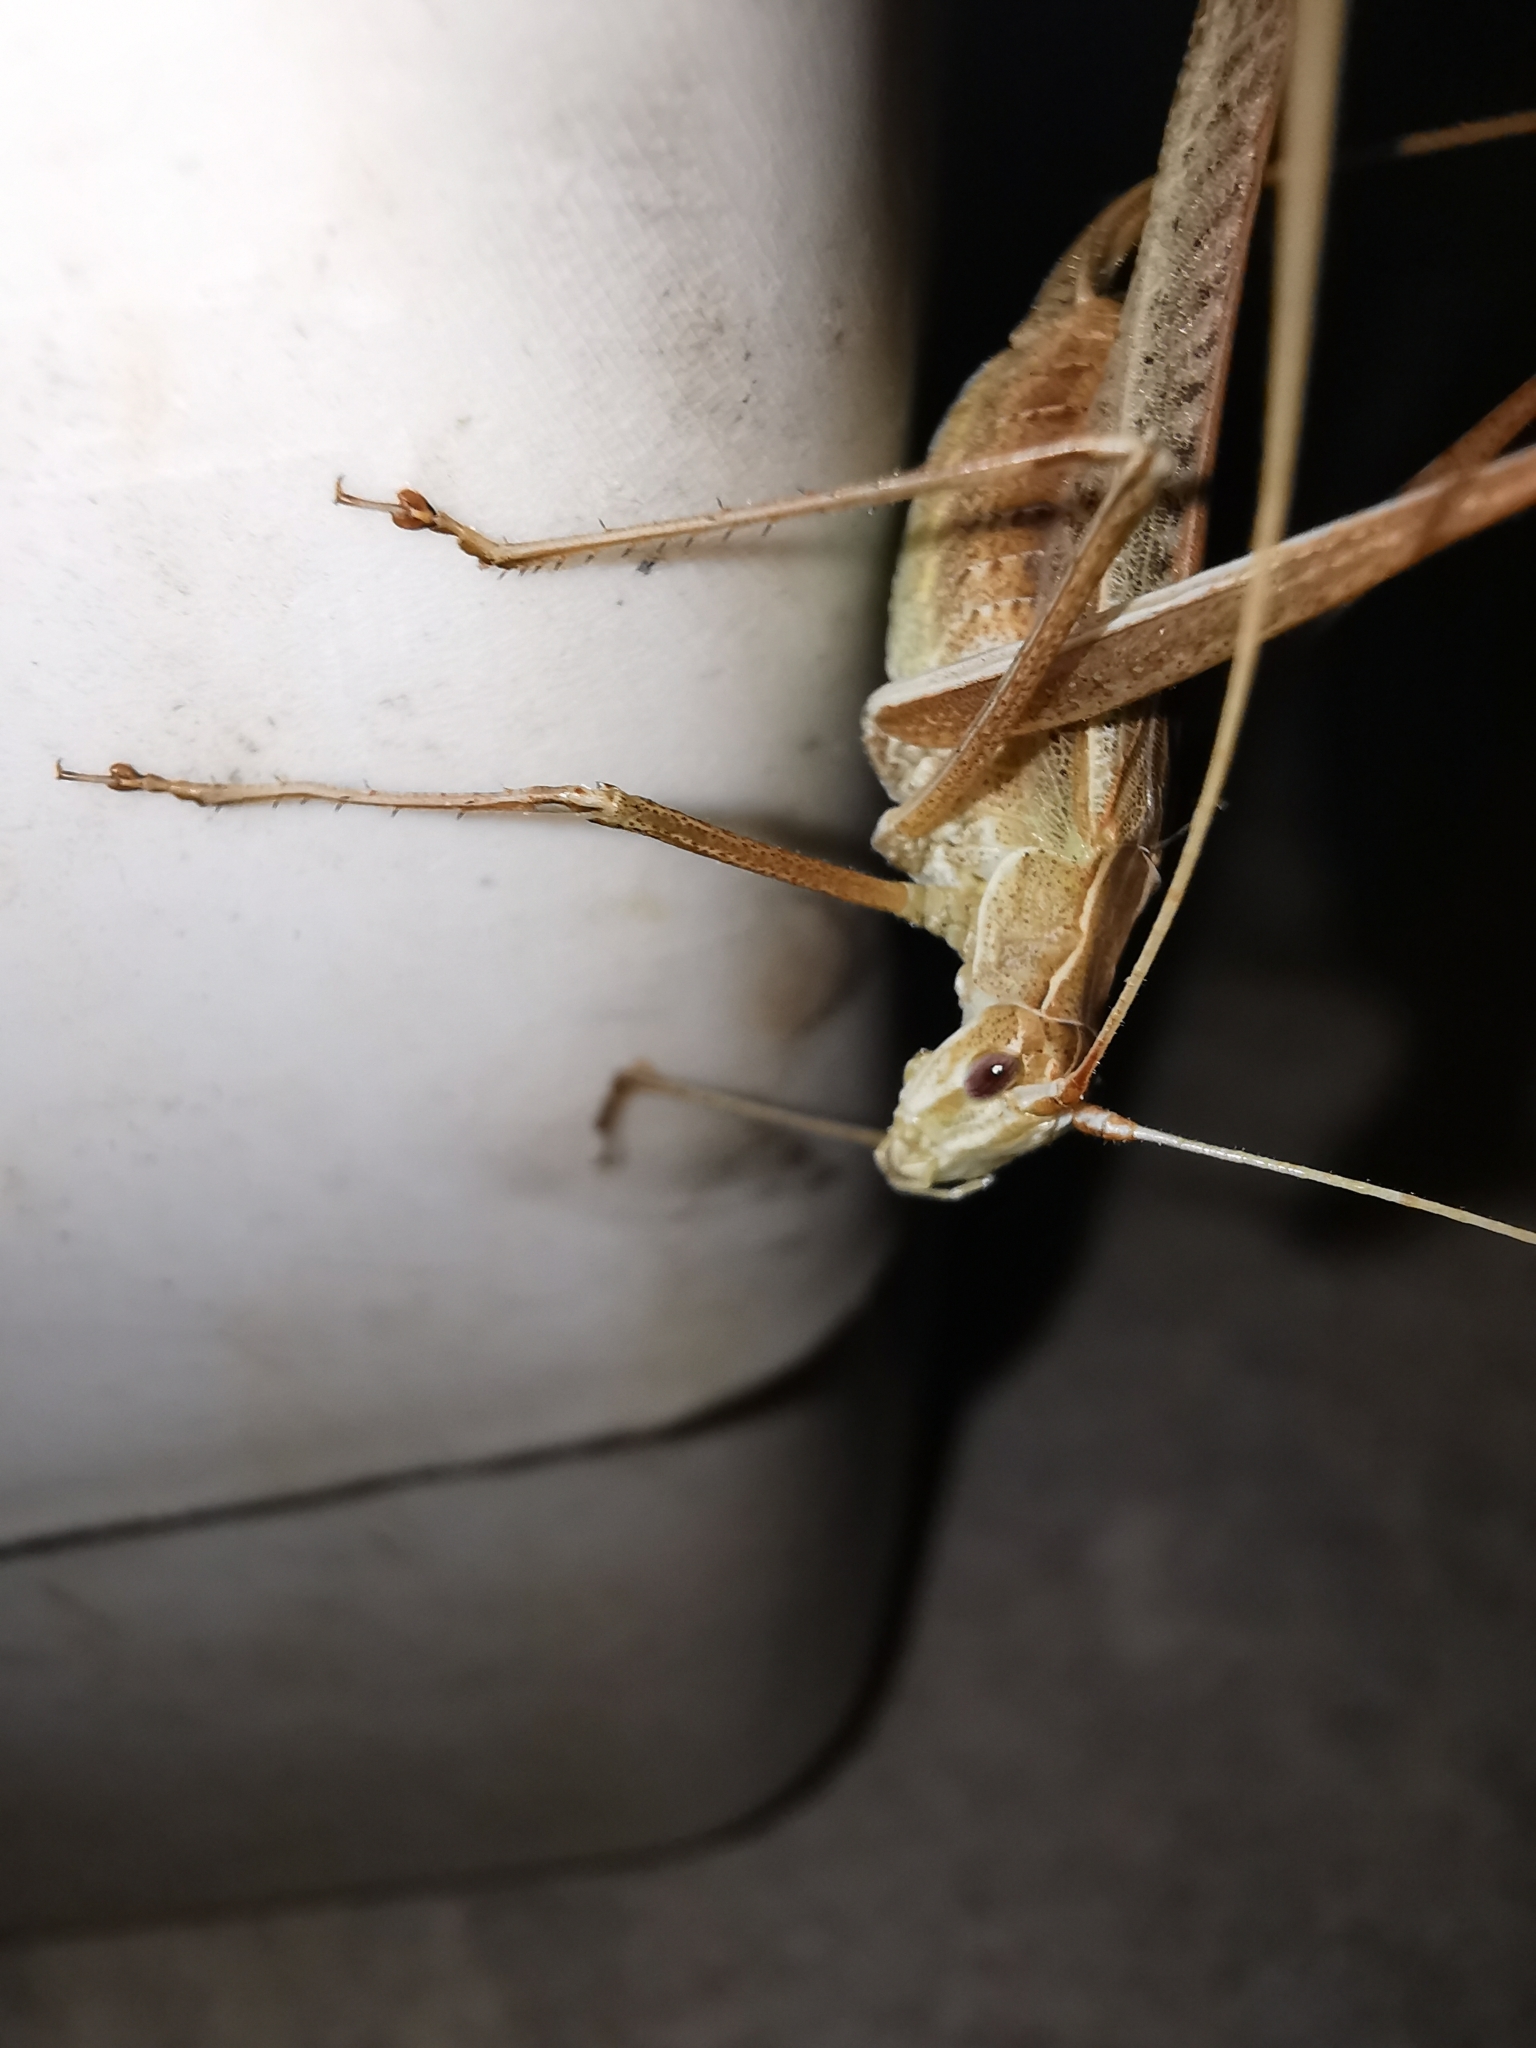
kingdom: Animalia
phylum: Arthropoda
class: Insecta
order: Orthoptera
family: Tettigoniidae
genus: Tylopsis
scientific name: Tylopsis lilifolia
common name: Lily bush-cricket
